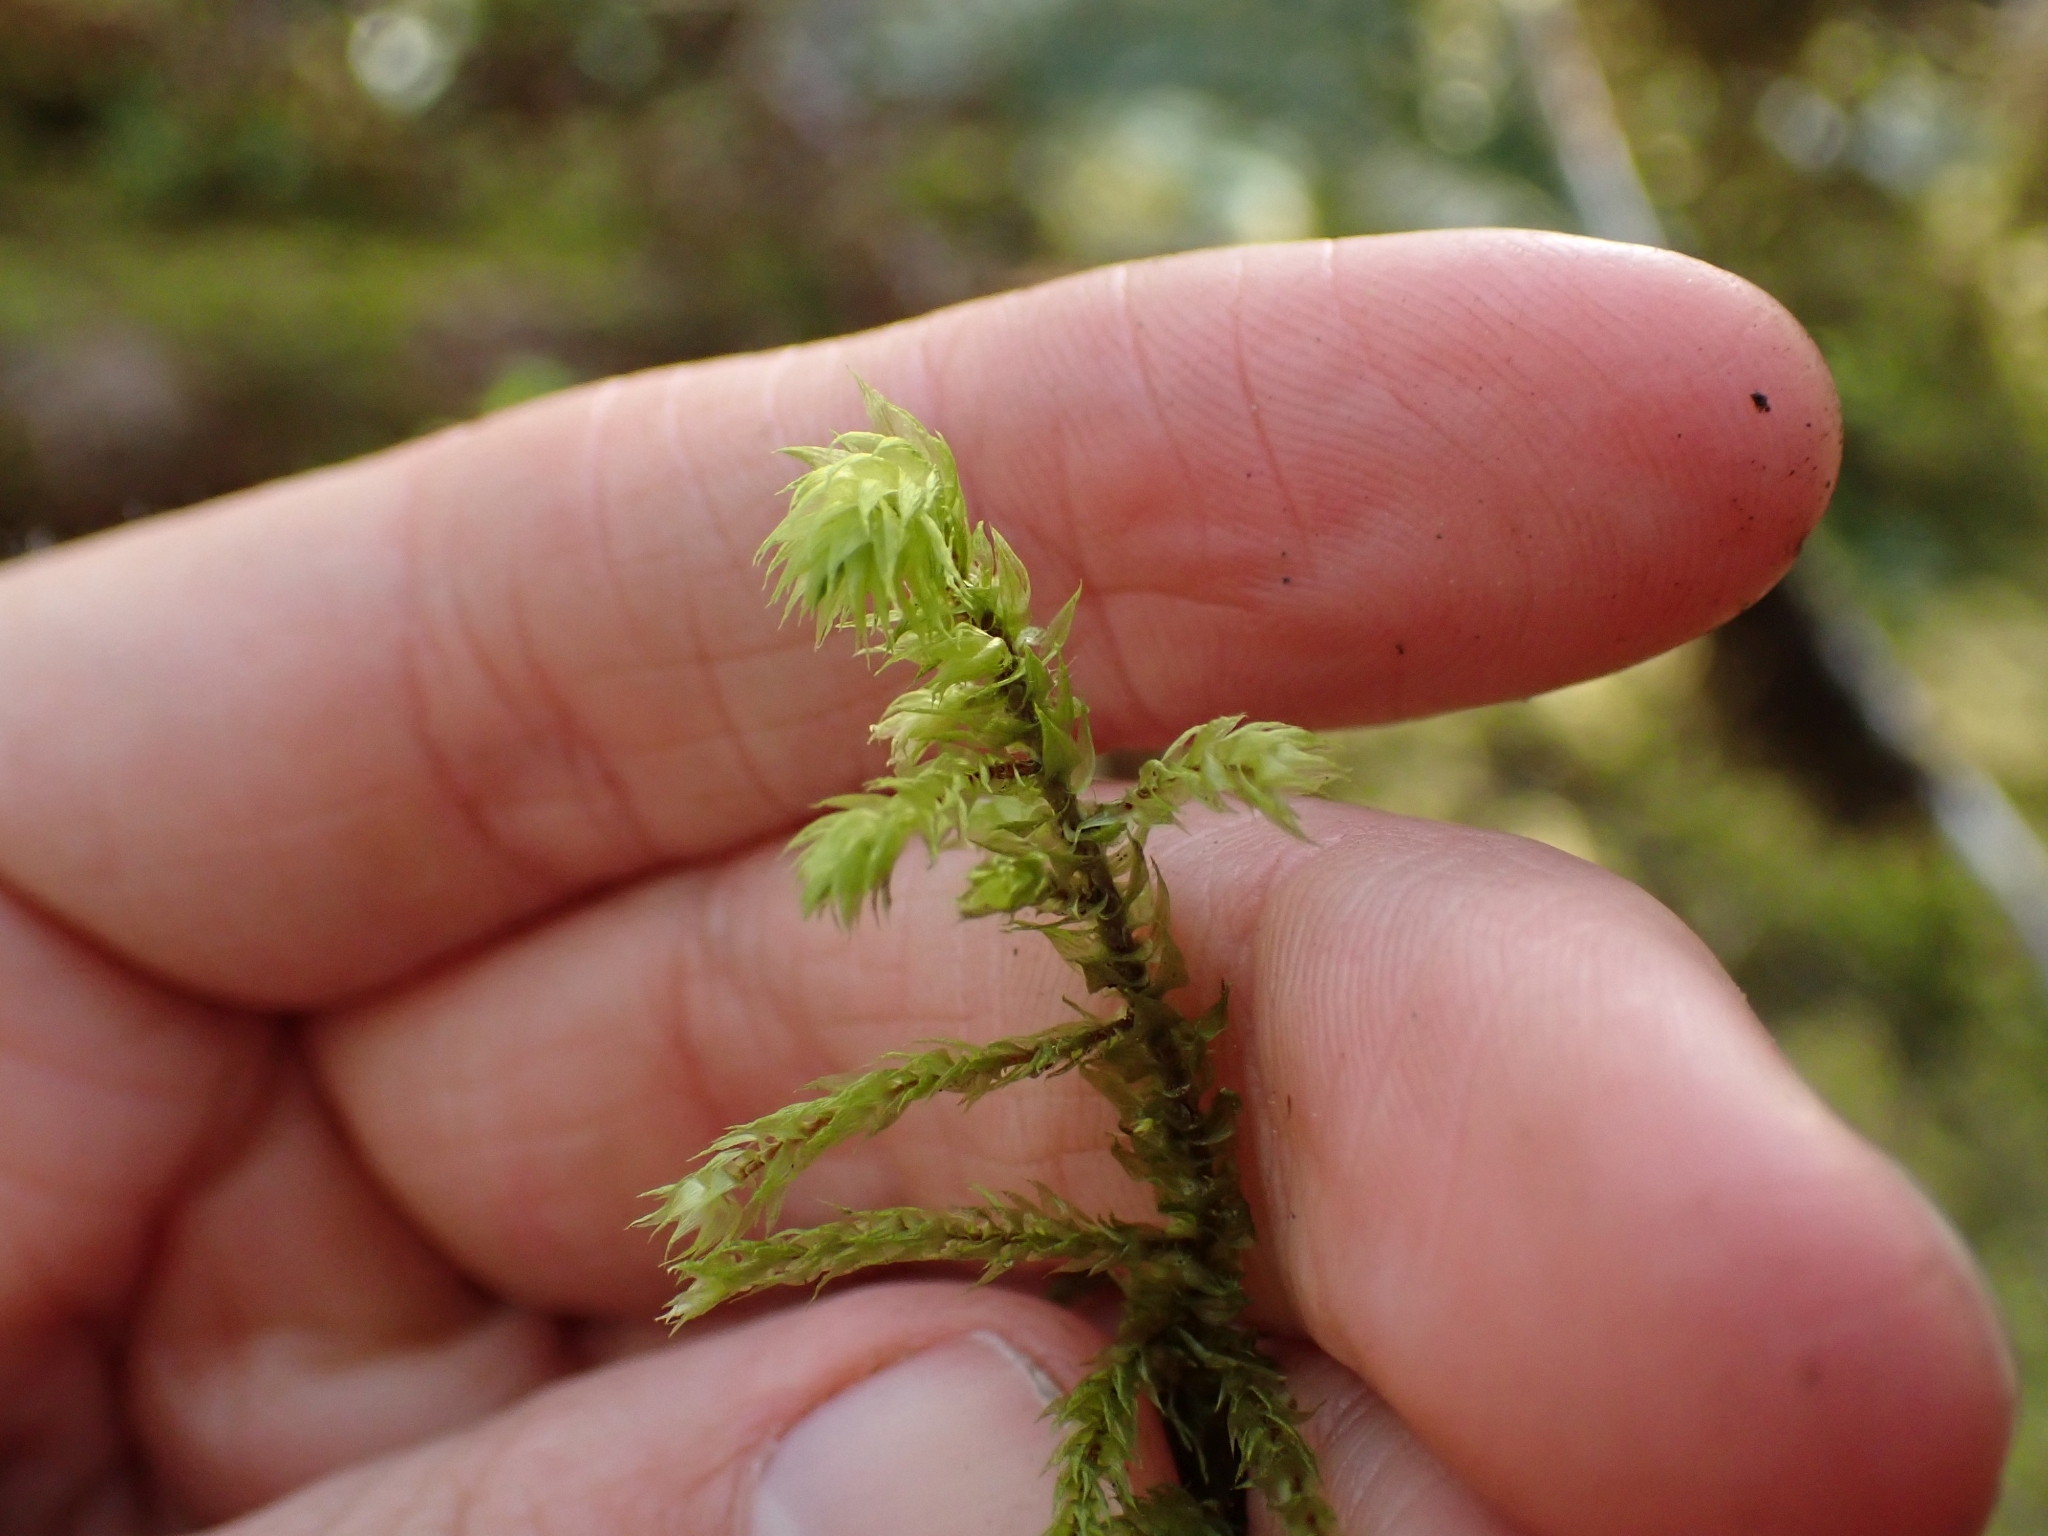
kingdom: Plantae
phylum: Bryophyta
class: Bryopsida
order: Hypnales
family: Hylocomiaceae
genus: Hylocomiadelphus
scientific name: Hylocomiadelphus triquetrus
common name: Rough goose neck moss
